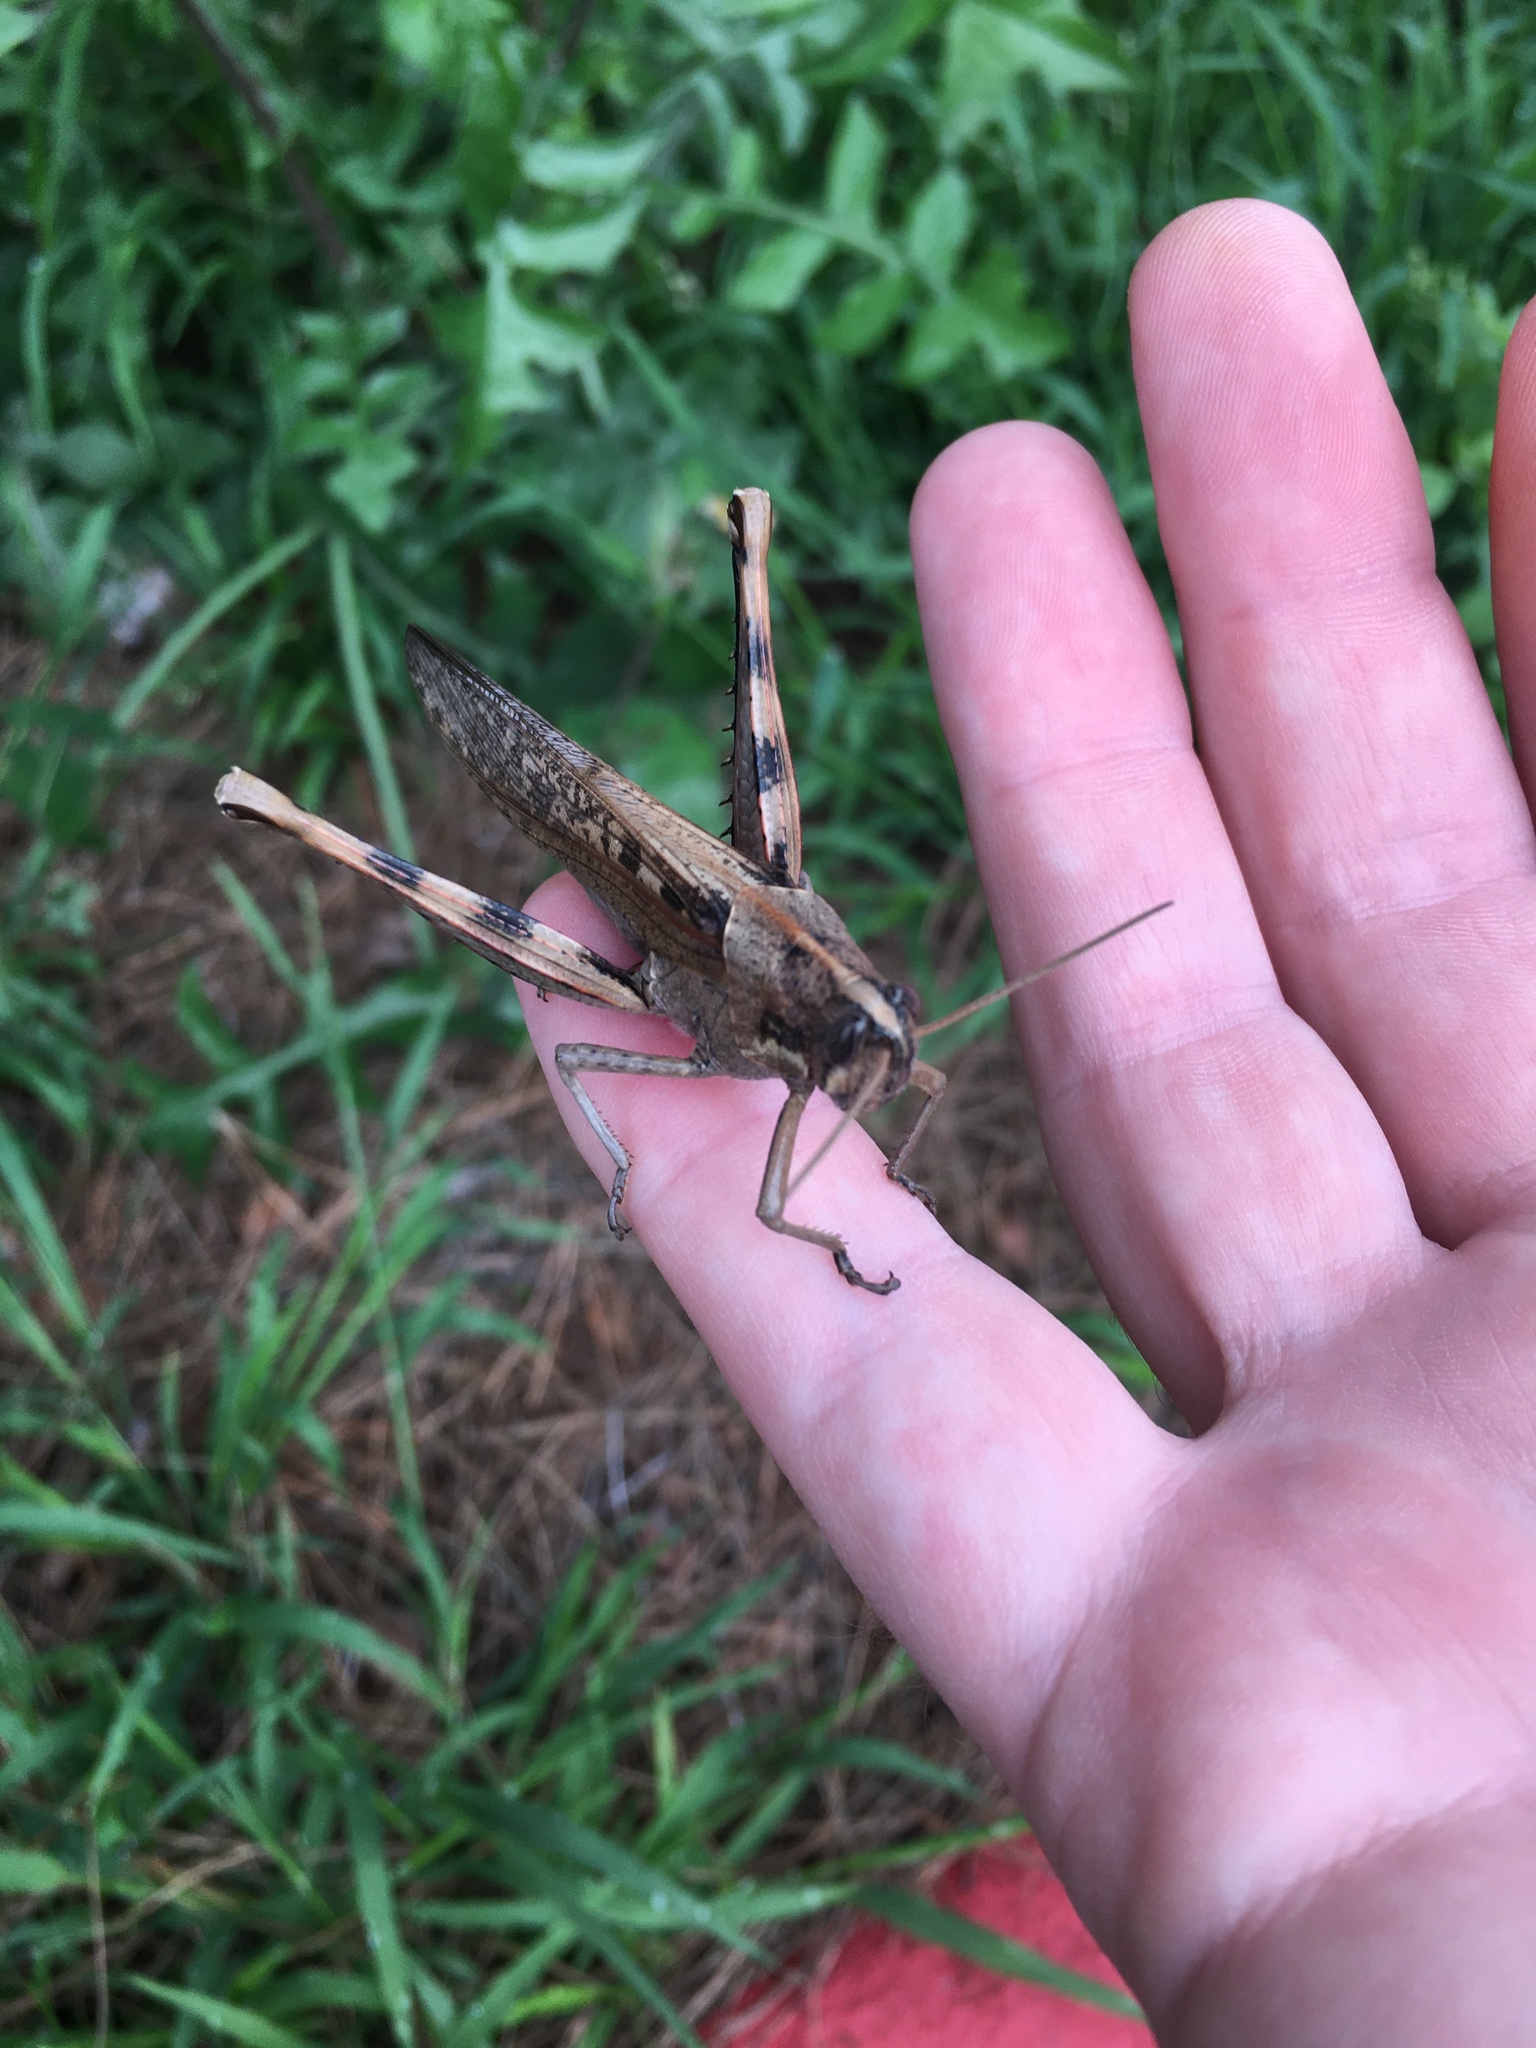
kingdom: Animalia
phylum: Arthropoda
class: Insecta
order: Orthoptera
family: Acrididae
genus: Schistocerca
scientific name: Schistocerca nitens
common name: Vagrant grasshopper
